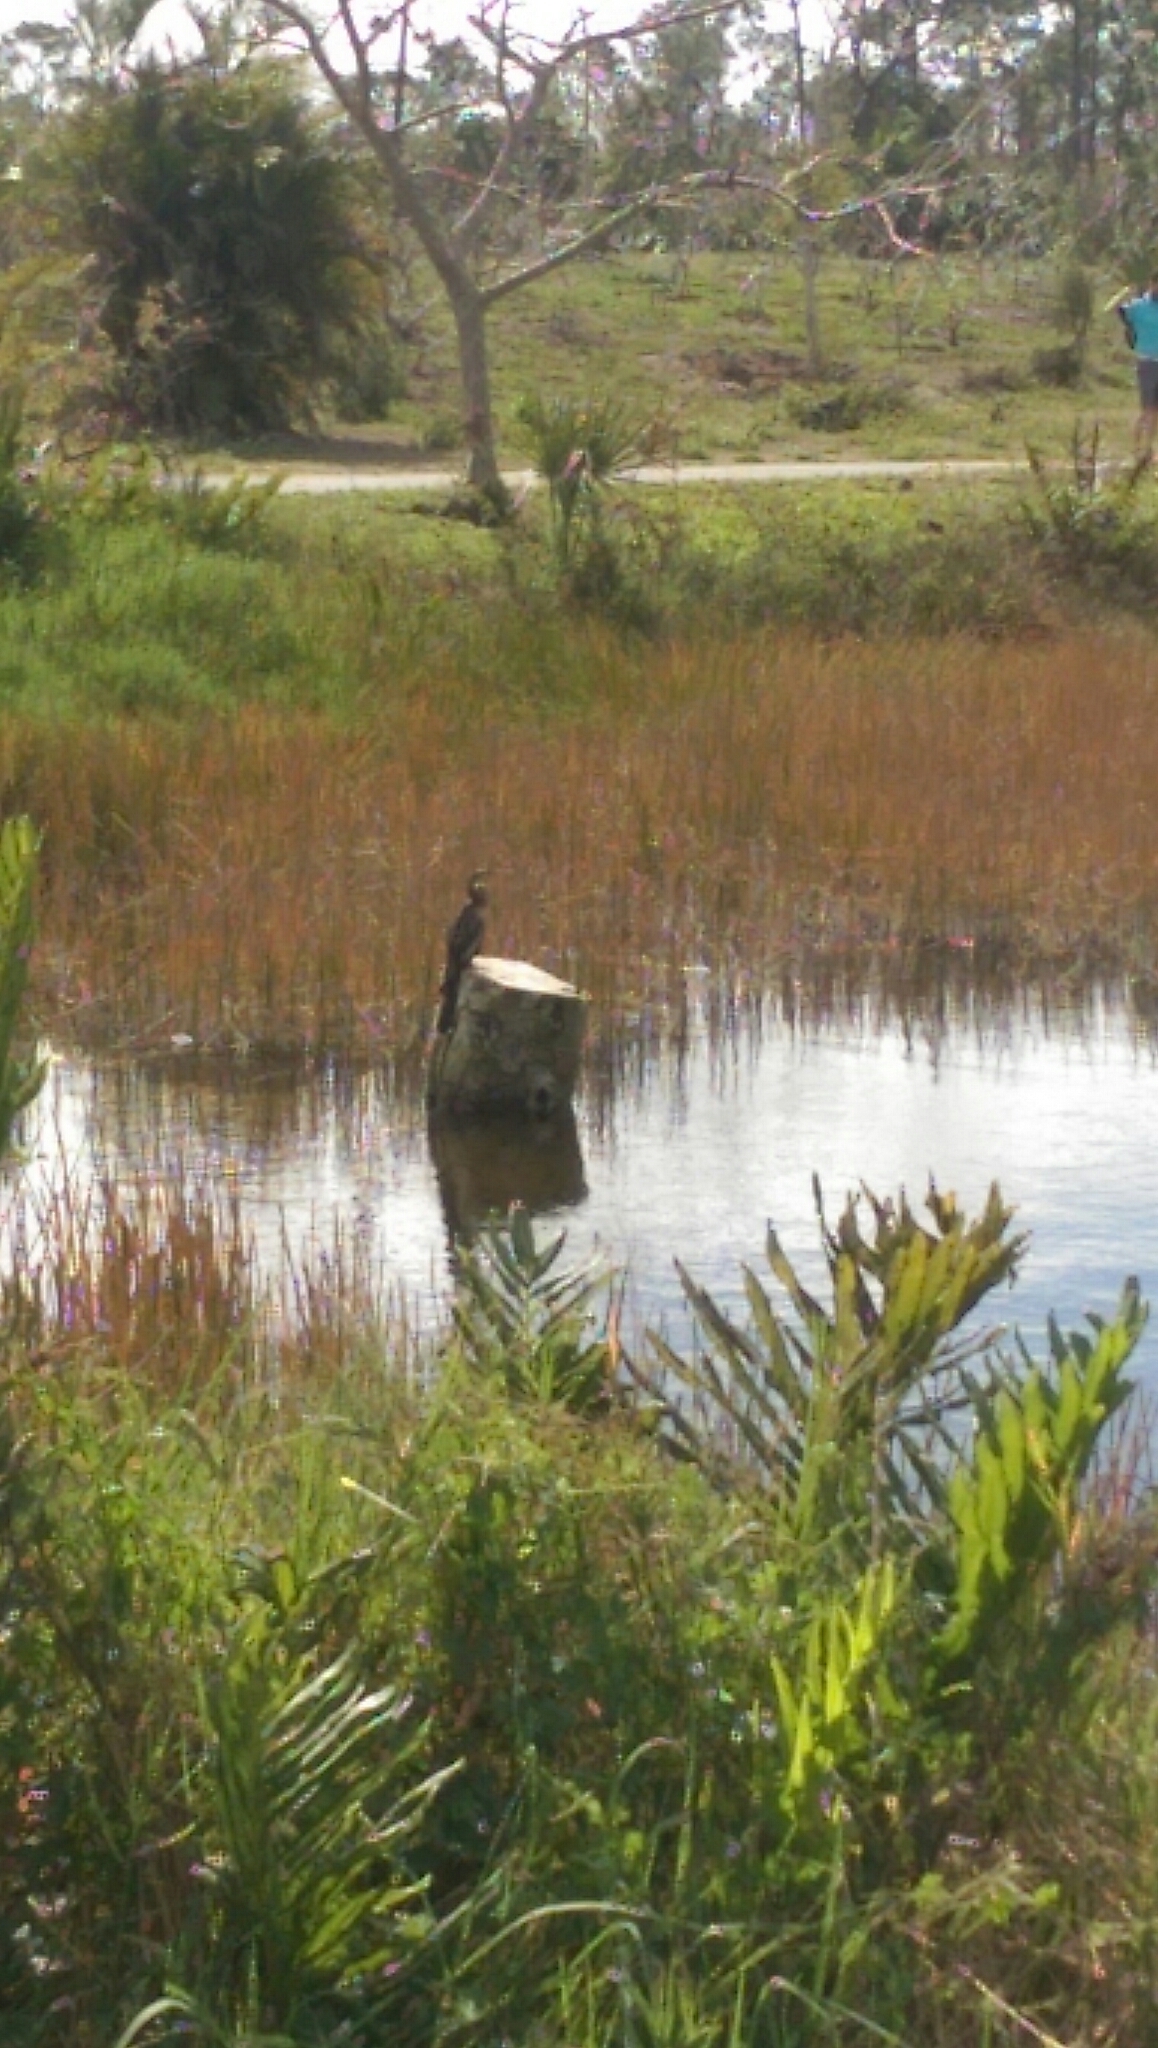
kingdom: Animalia
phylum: Chordata
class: Aves
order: Suliformes
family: Anhingidae
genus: Anhinga
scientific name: Anhinga anhinga
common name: Anhinga
